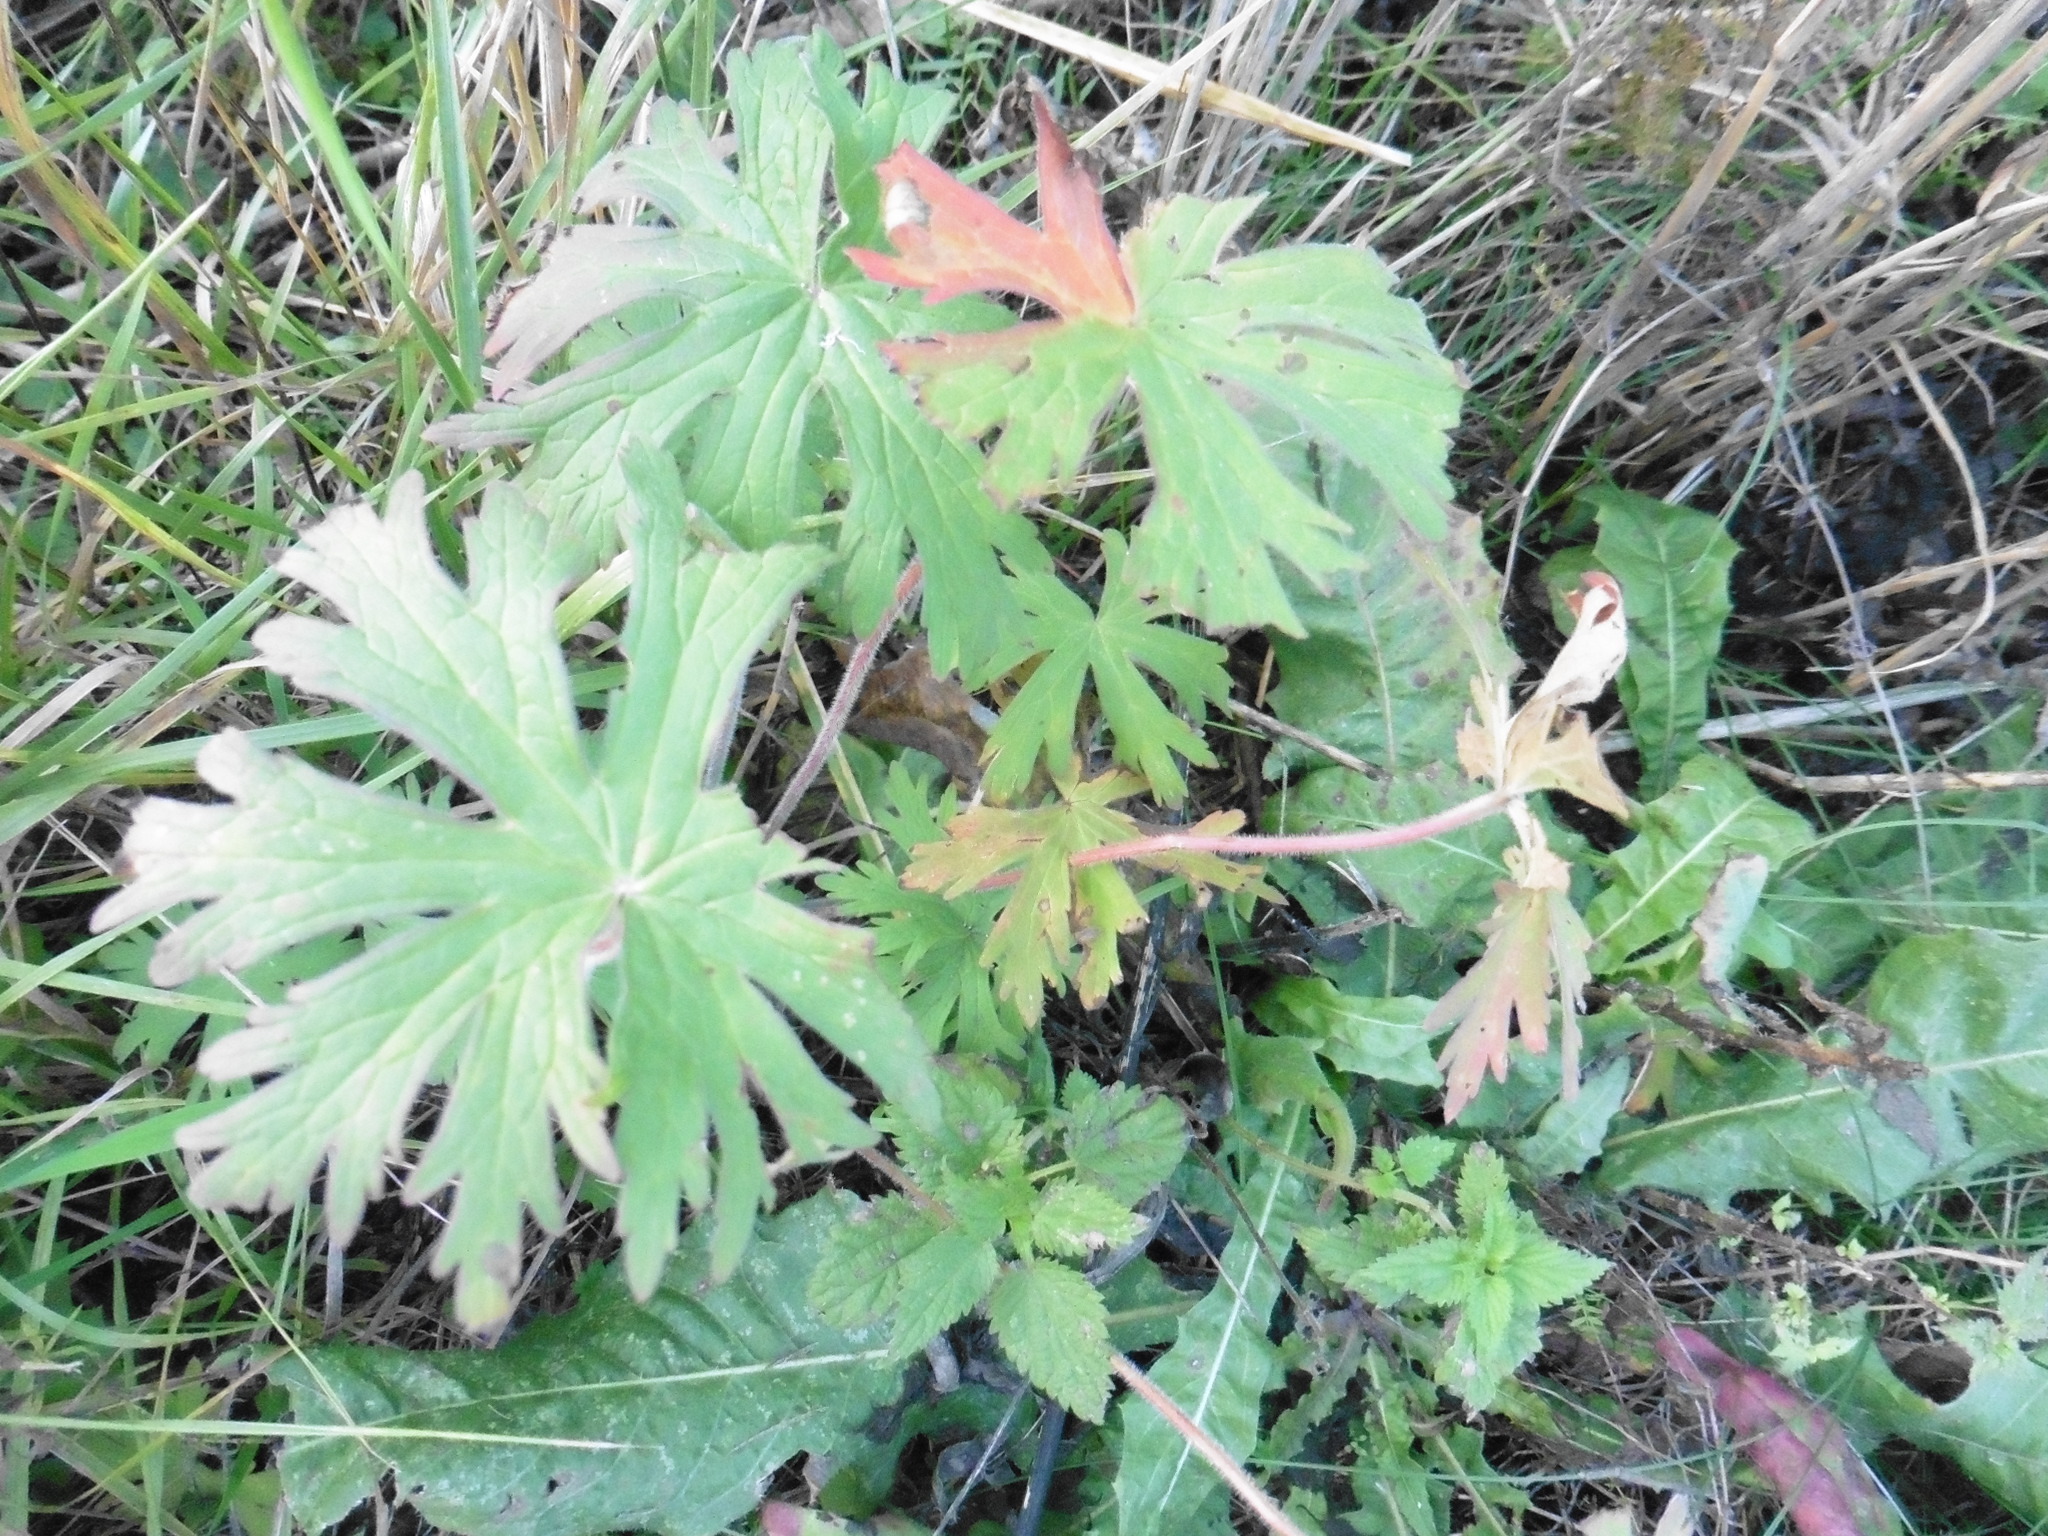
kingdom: Plantae
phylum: Tracheophyta
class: Magnoliopsida
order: Geraniales
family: Geraniaceae
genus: Geranium
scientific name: Geranium pratense
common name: Meadow crane's-bill
